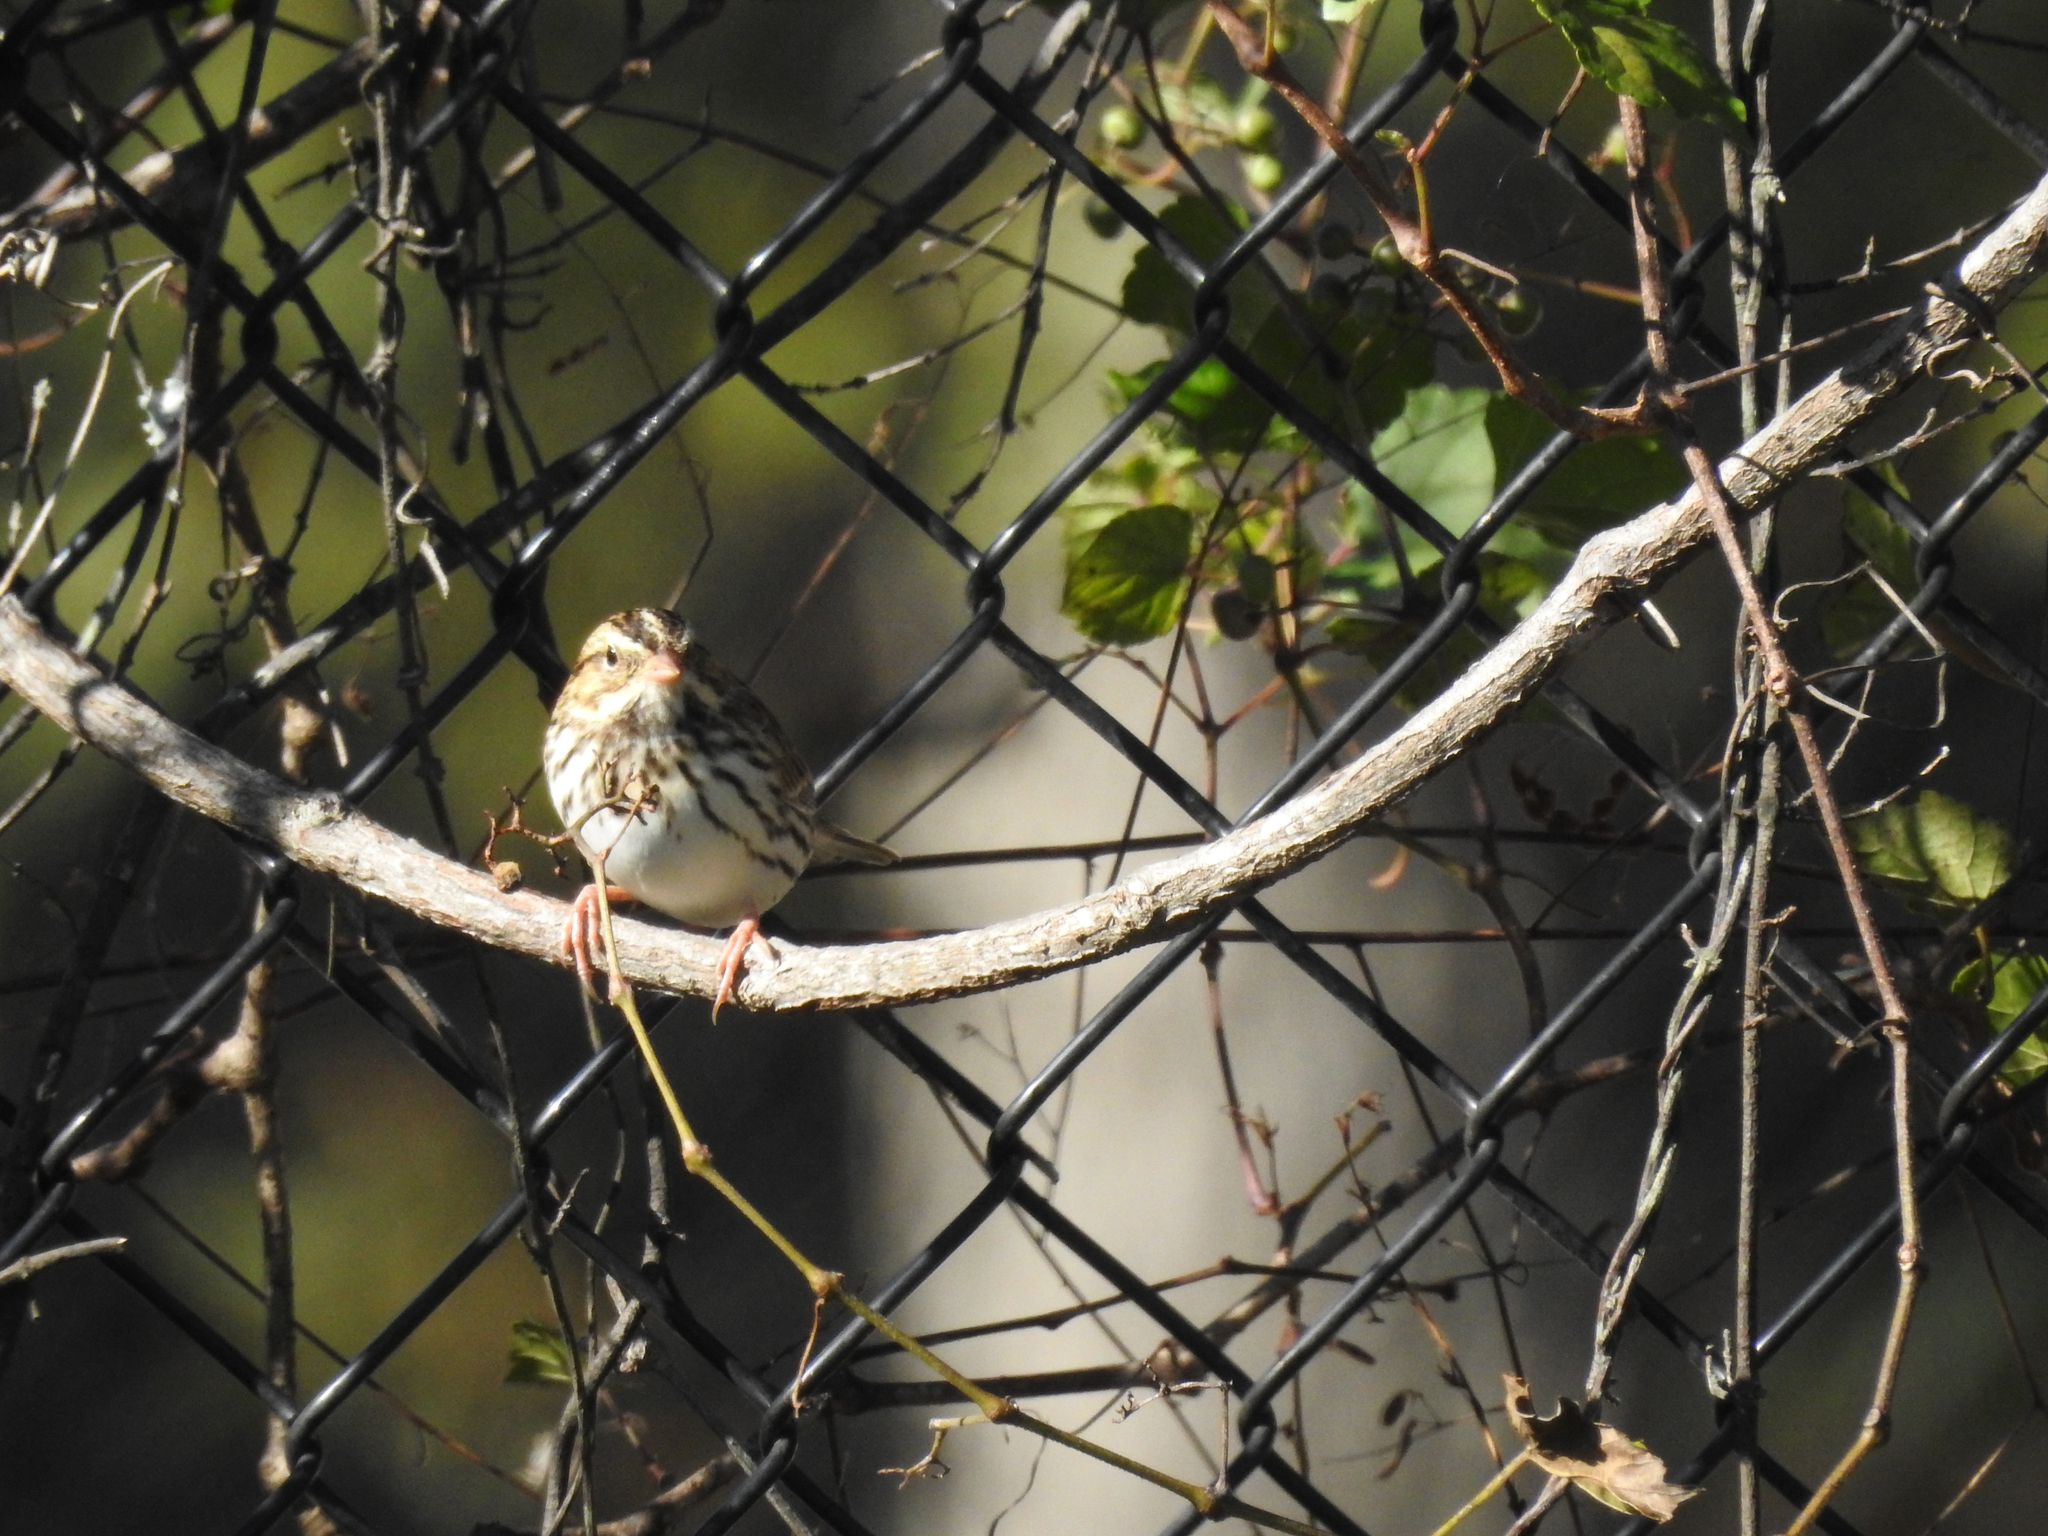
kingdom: Animalia
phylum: Chordata
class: Aves
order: Passeriformes
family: Passerellidae
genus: Passerculus
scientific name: Passerculus sandwichensis
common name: Savannah sparrow
